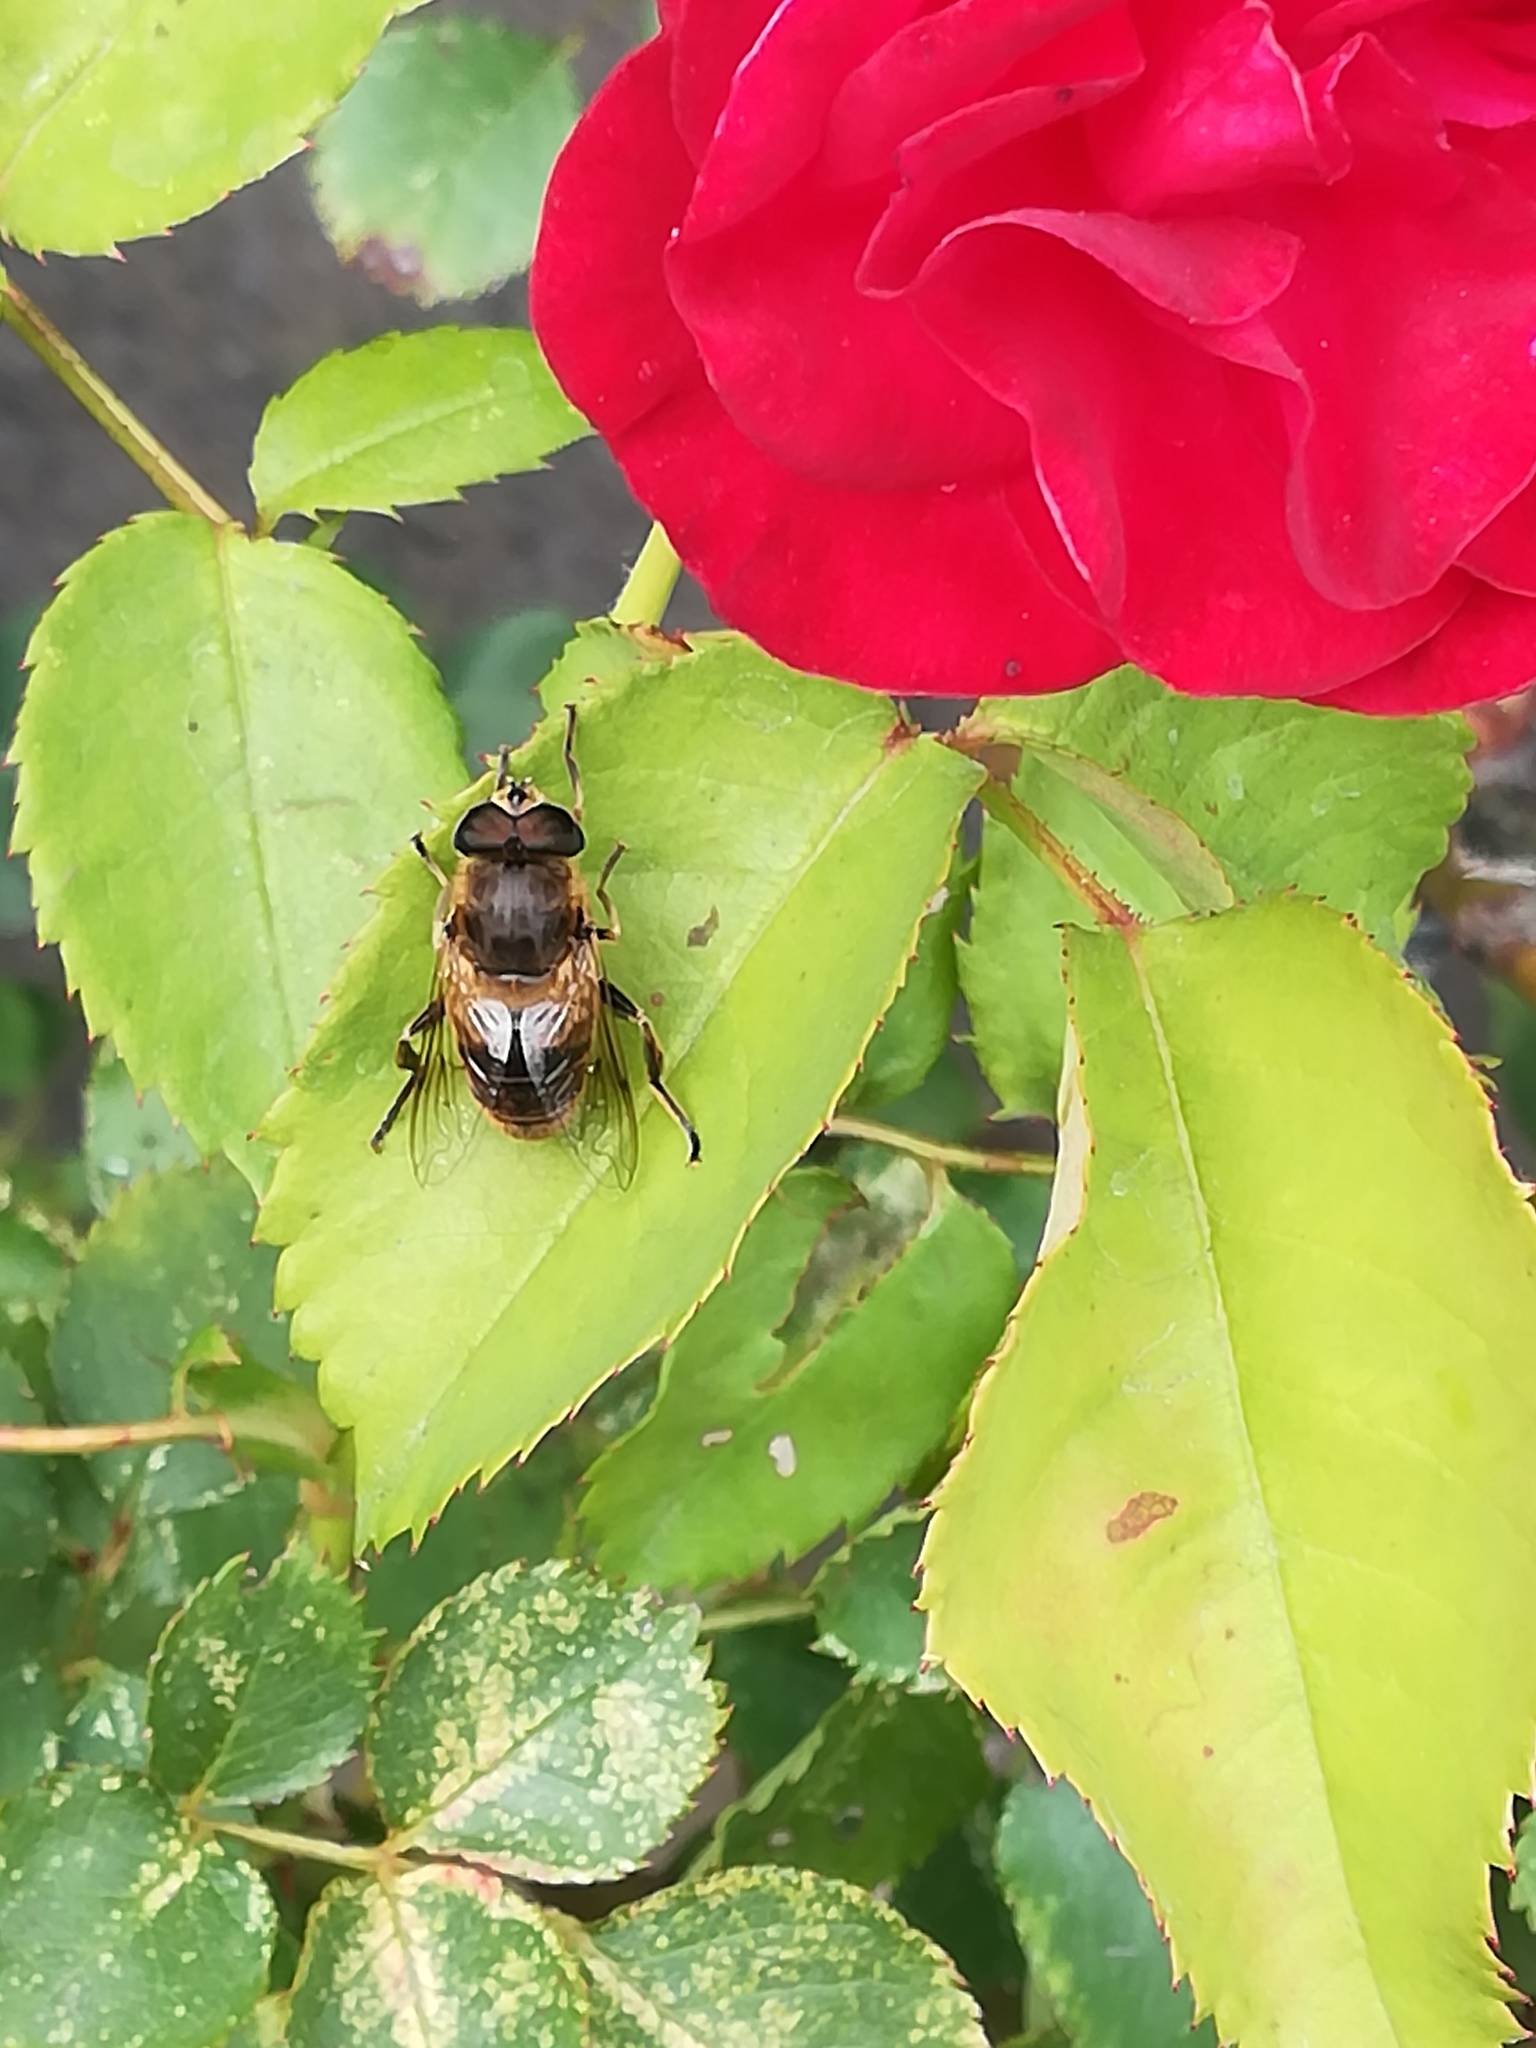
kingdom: Animalia
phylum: Arthropoda
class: Insecta
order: Diptera
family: Syrphidae
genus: Eristalis
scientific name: Eristalis tenax
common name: Drone fly
